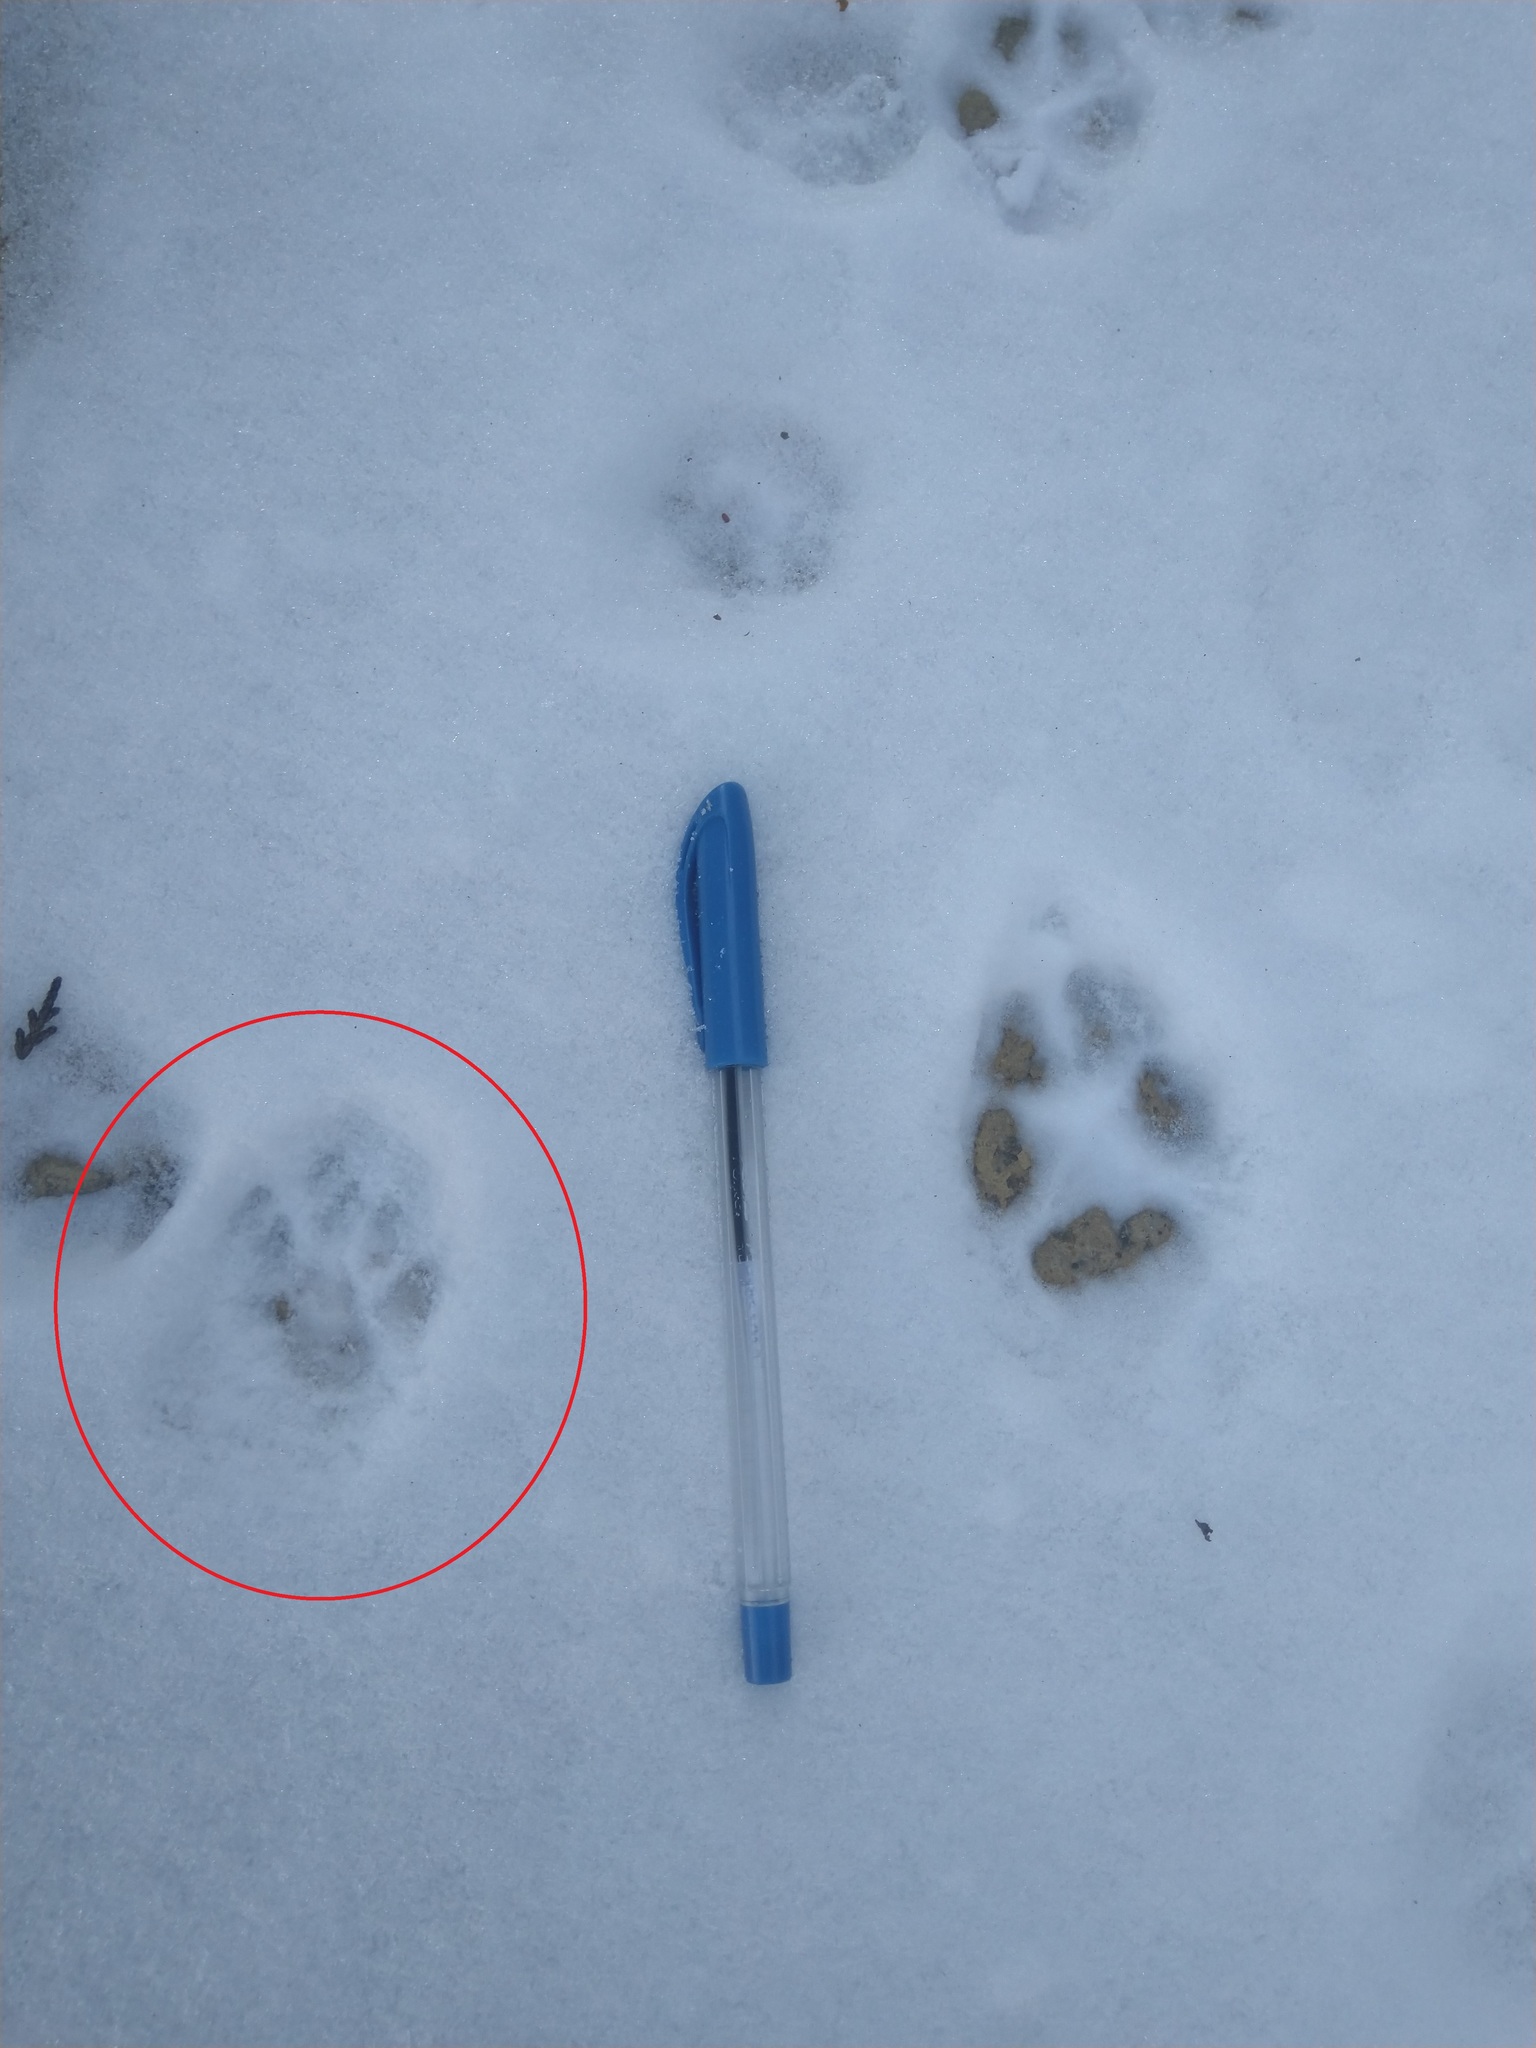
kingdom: Animalia
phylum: Chordata
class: Mammalia
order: Carnivora
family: Felidae
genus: Felis
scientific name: Felis catus
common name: Domestic cat
